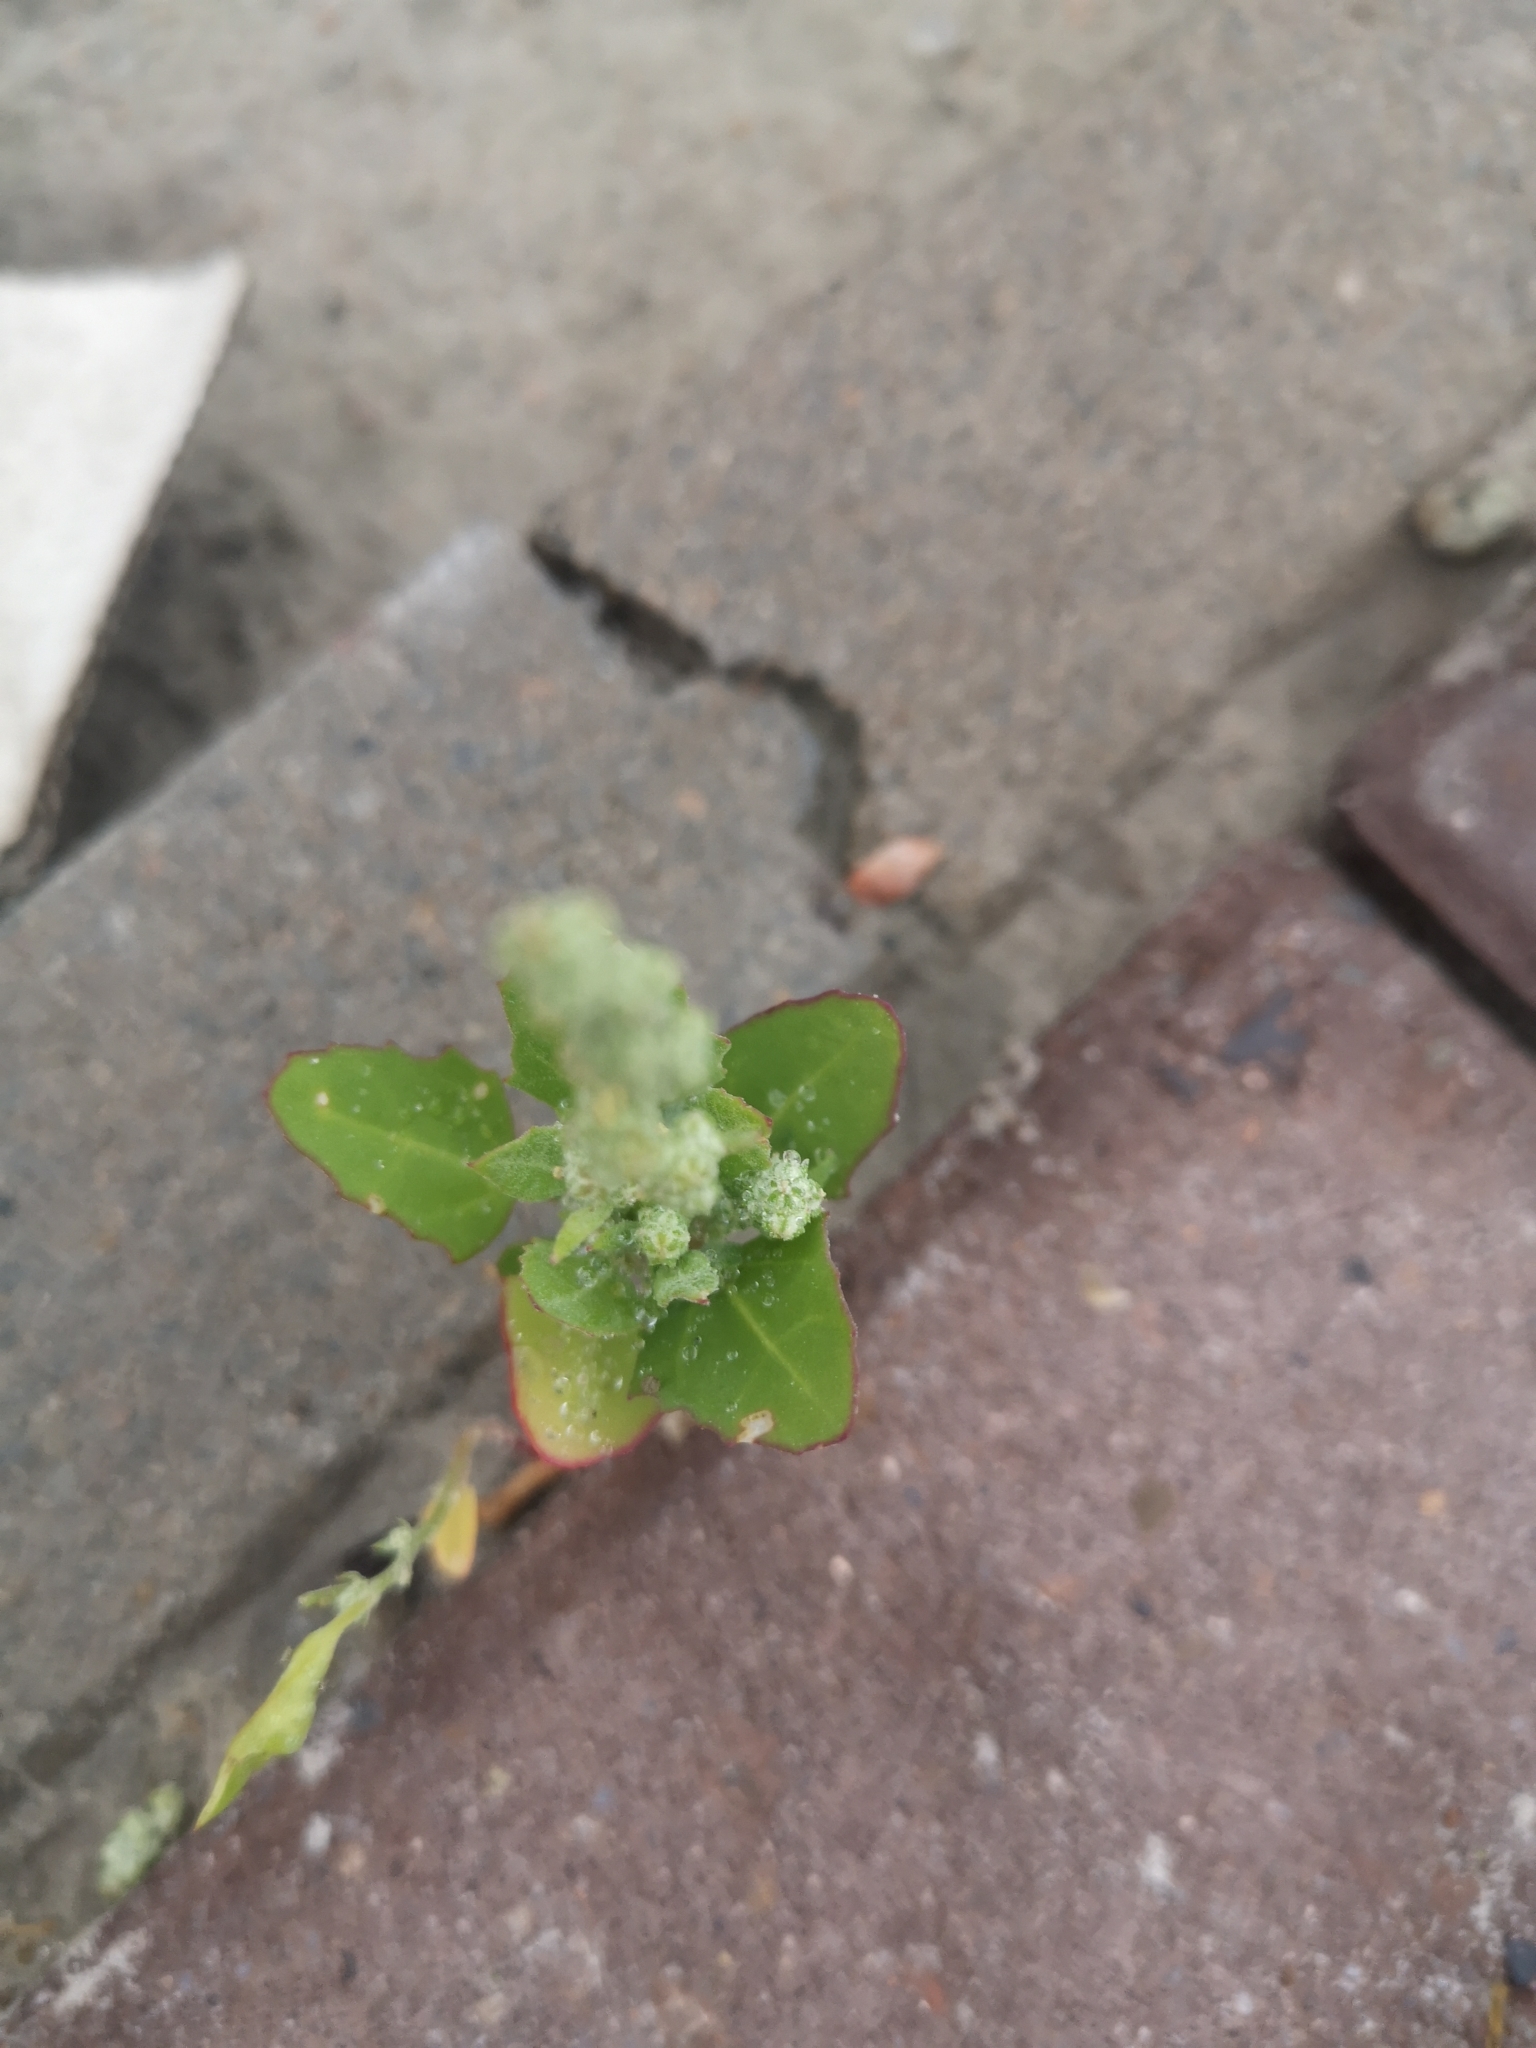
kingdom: Plantae
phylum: Tracheophyta
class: Magnoliopsida
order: Caryophyllales
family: Amaranthaceae
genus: Chenopodium
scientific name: Chenopodium album
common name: Fat-hen
